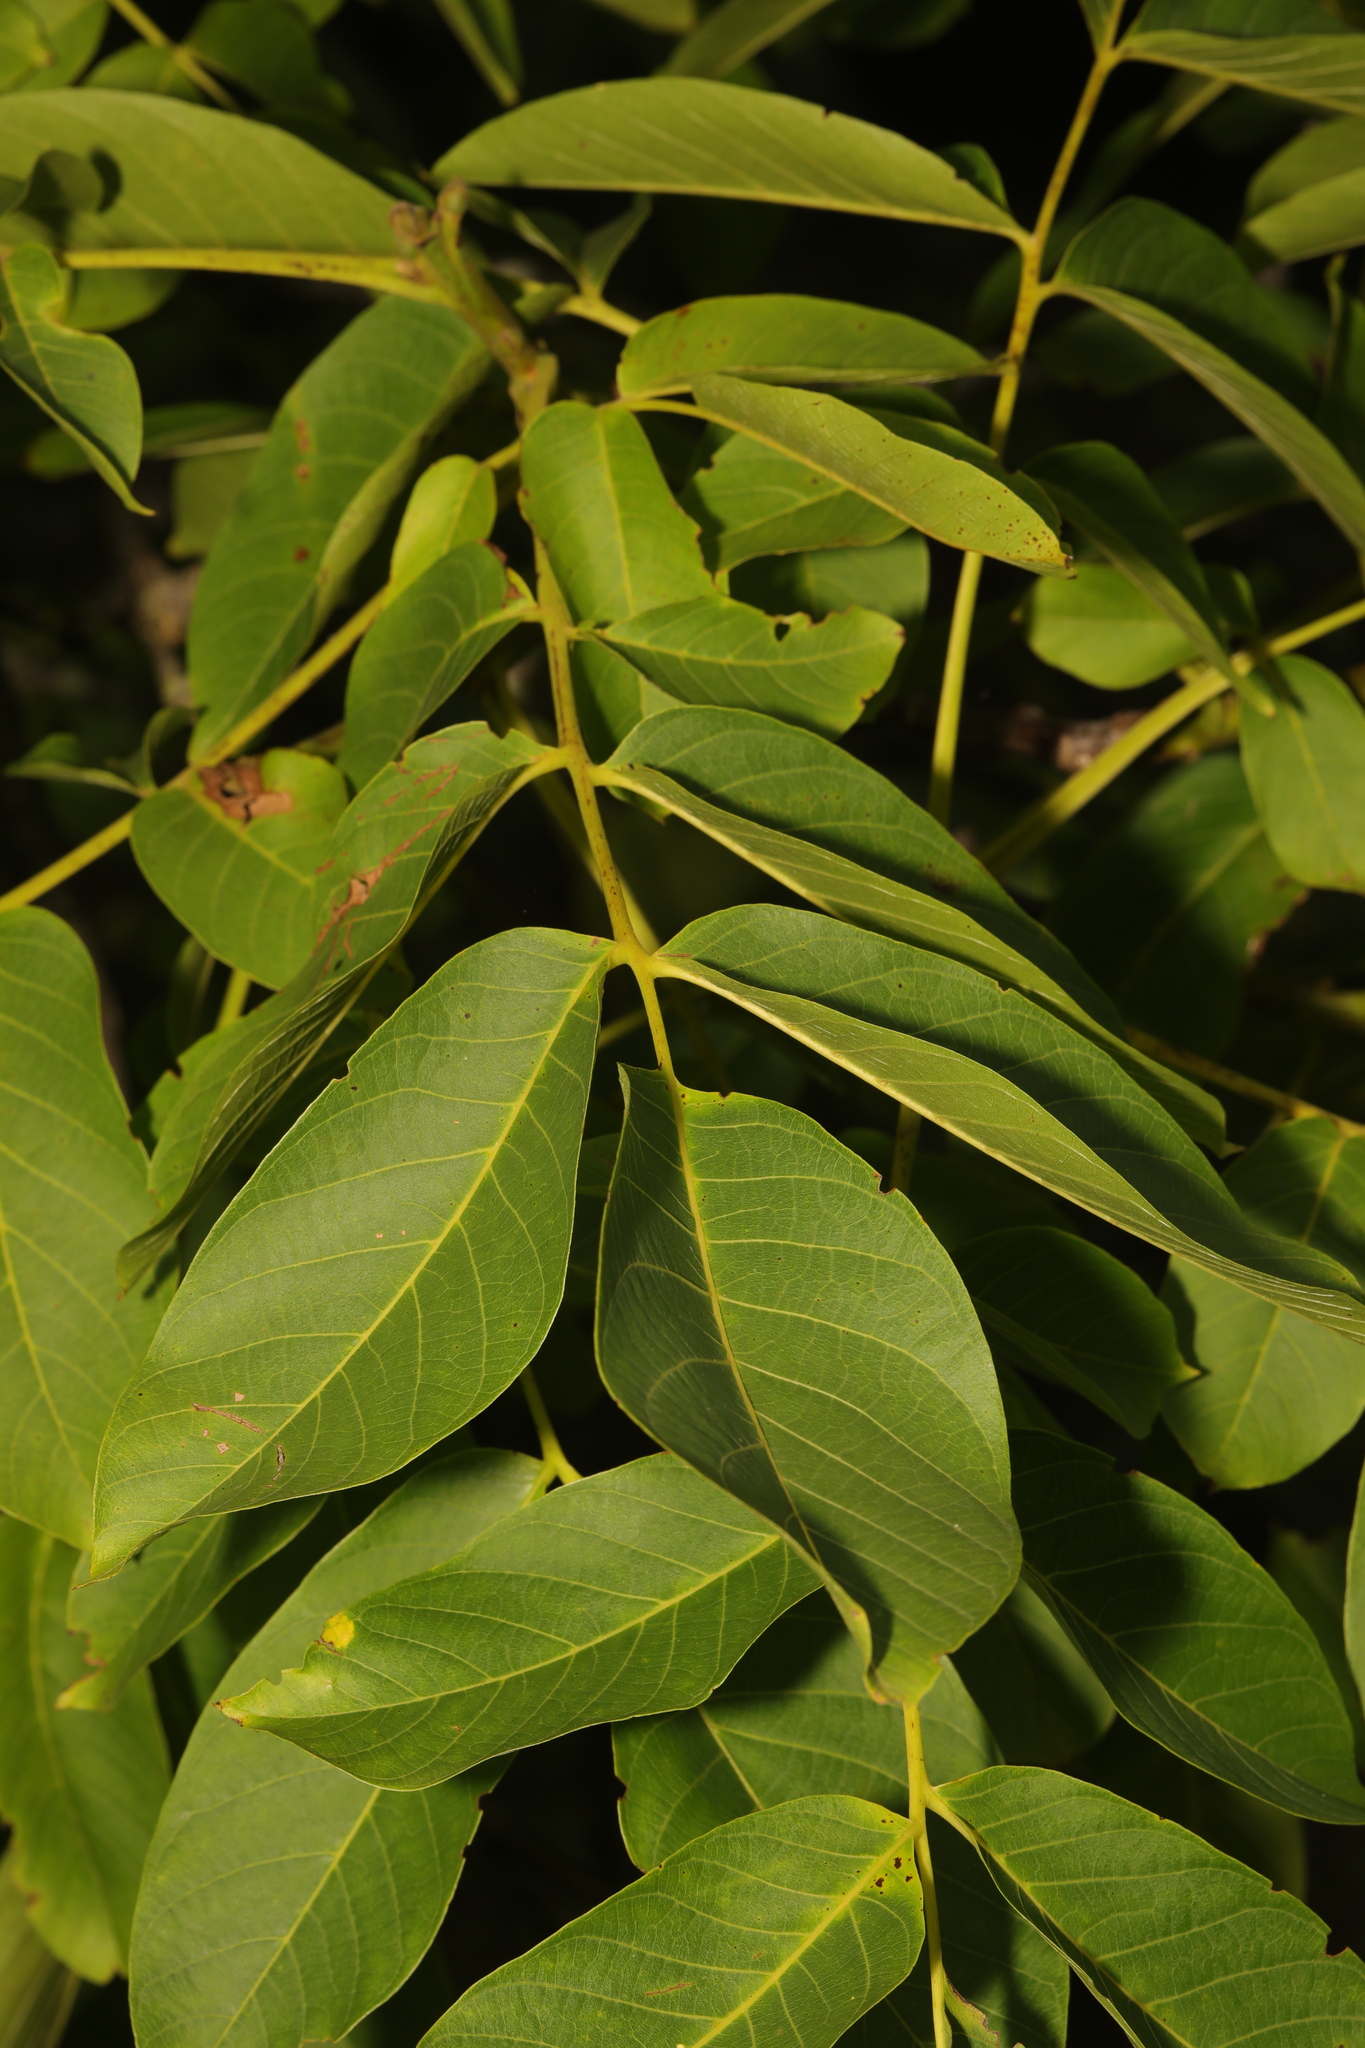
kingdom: Plantae
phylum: Tracheophyta
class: Magnoliopsida
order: Fagales
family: Juglandaceae
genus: Juglans
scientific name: Juglans regia
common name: Walnut
